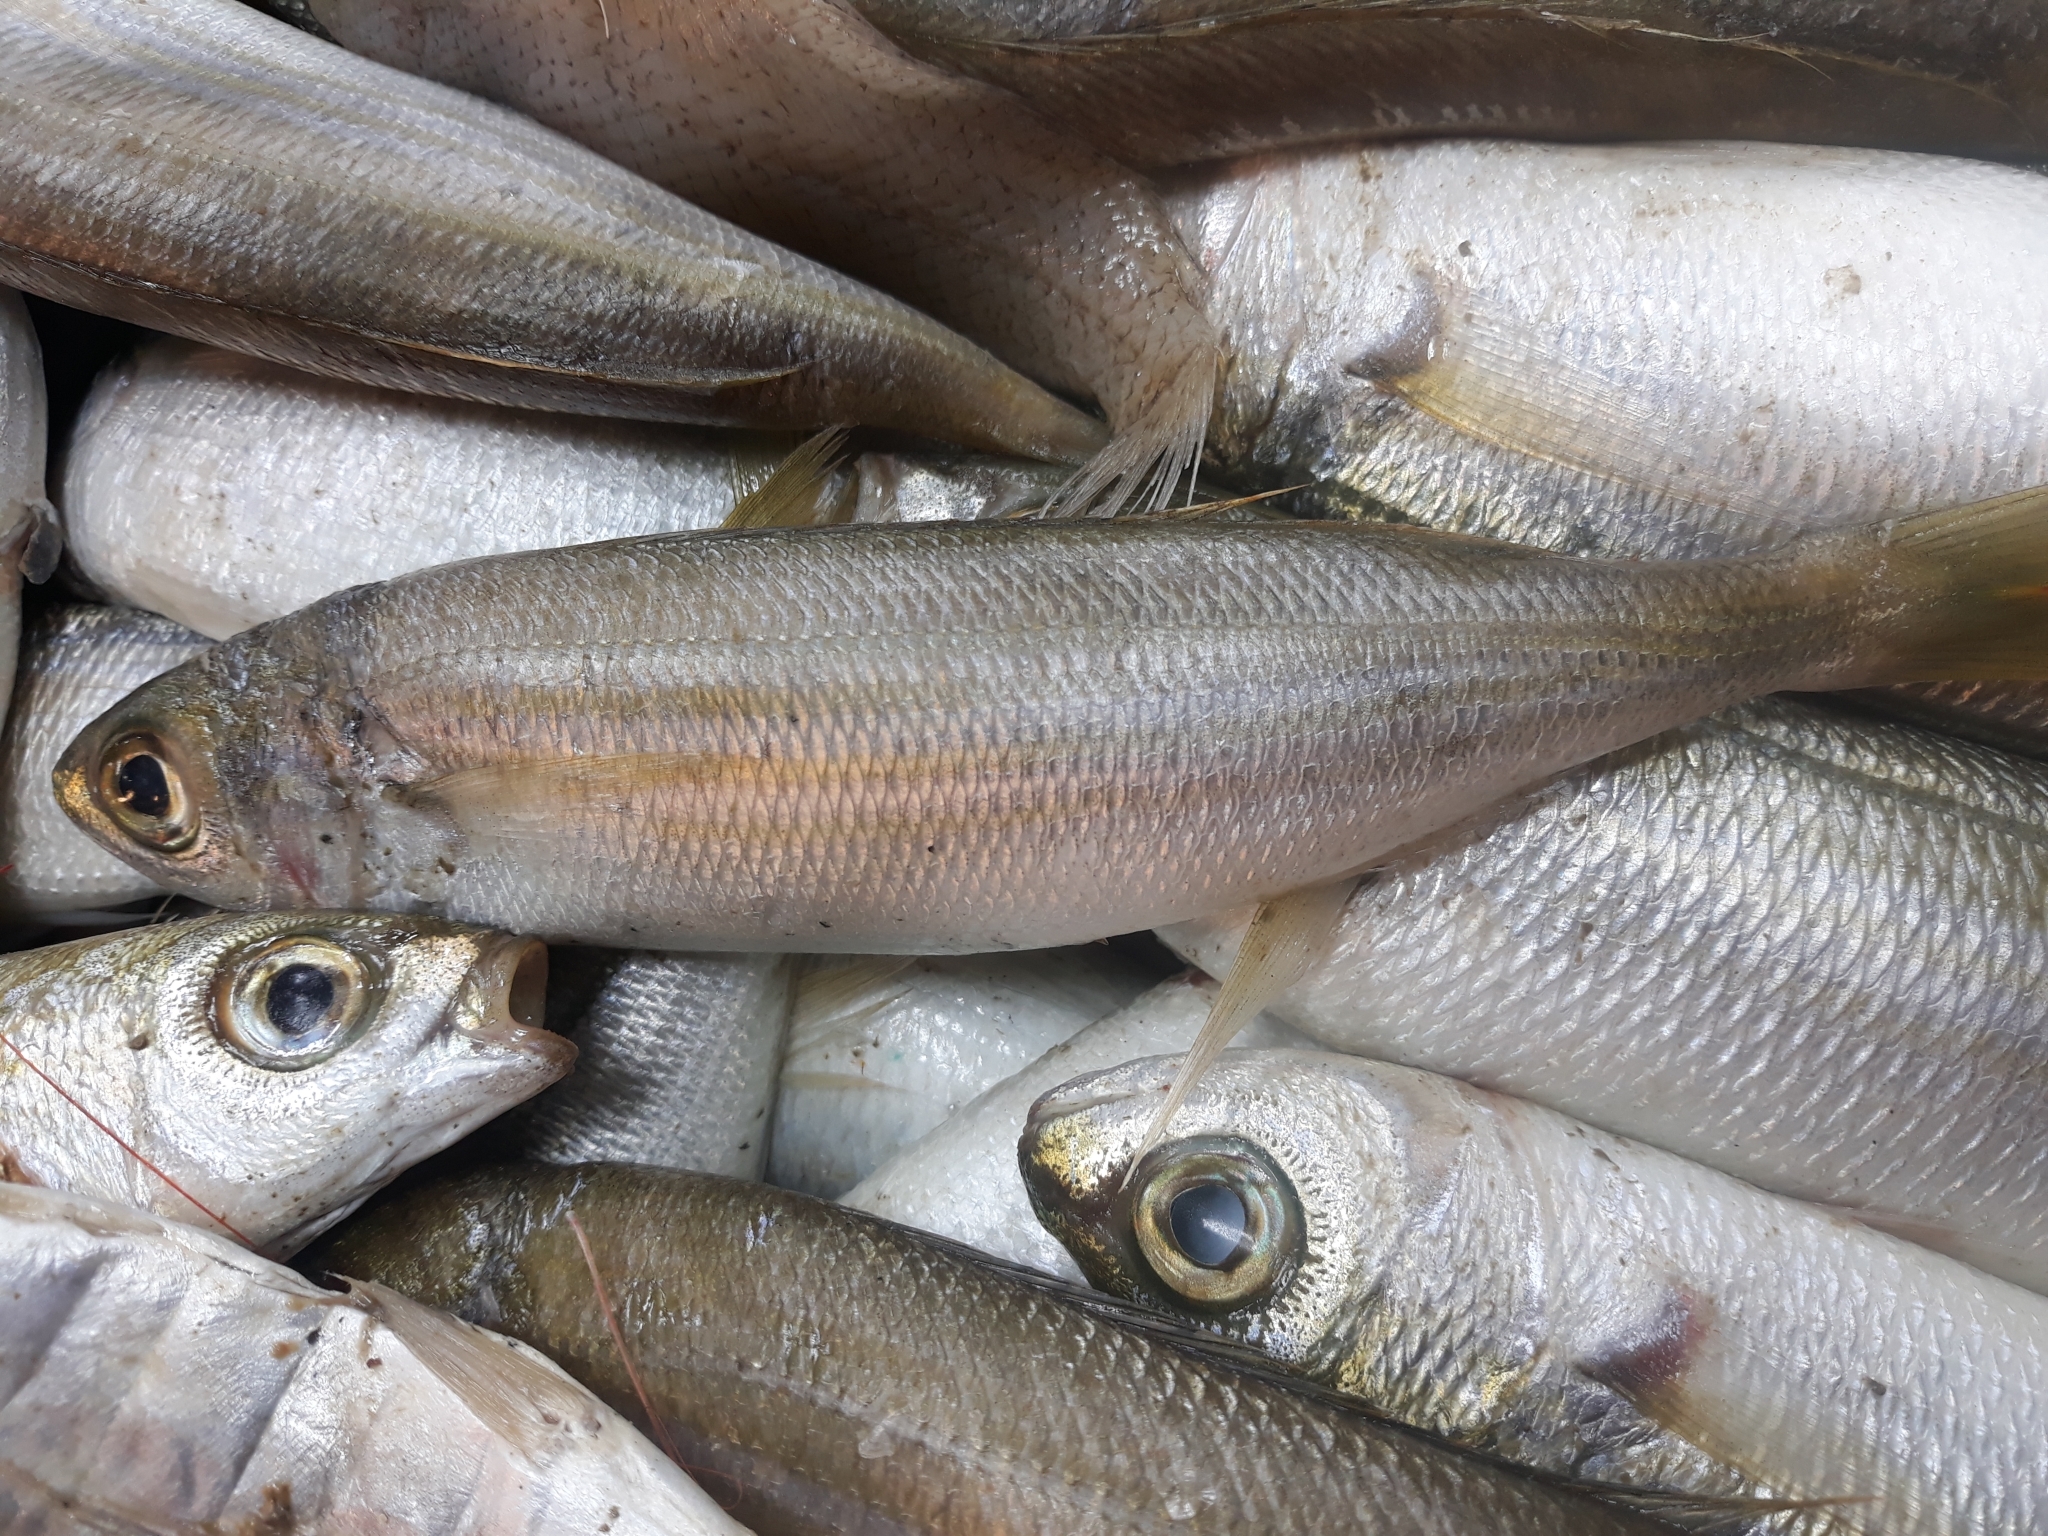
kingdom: Animalia
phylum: Chordata
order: Perciformes
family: Sparidae
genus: Boops
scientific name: Boops boops
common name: Bogue
